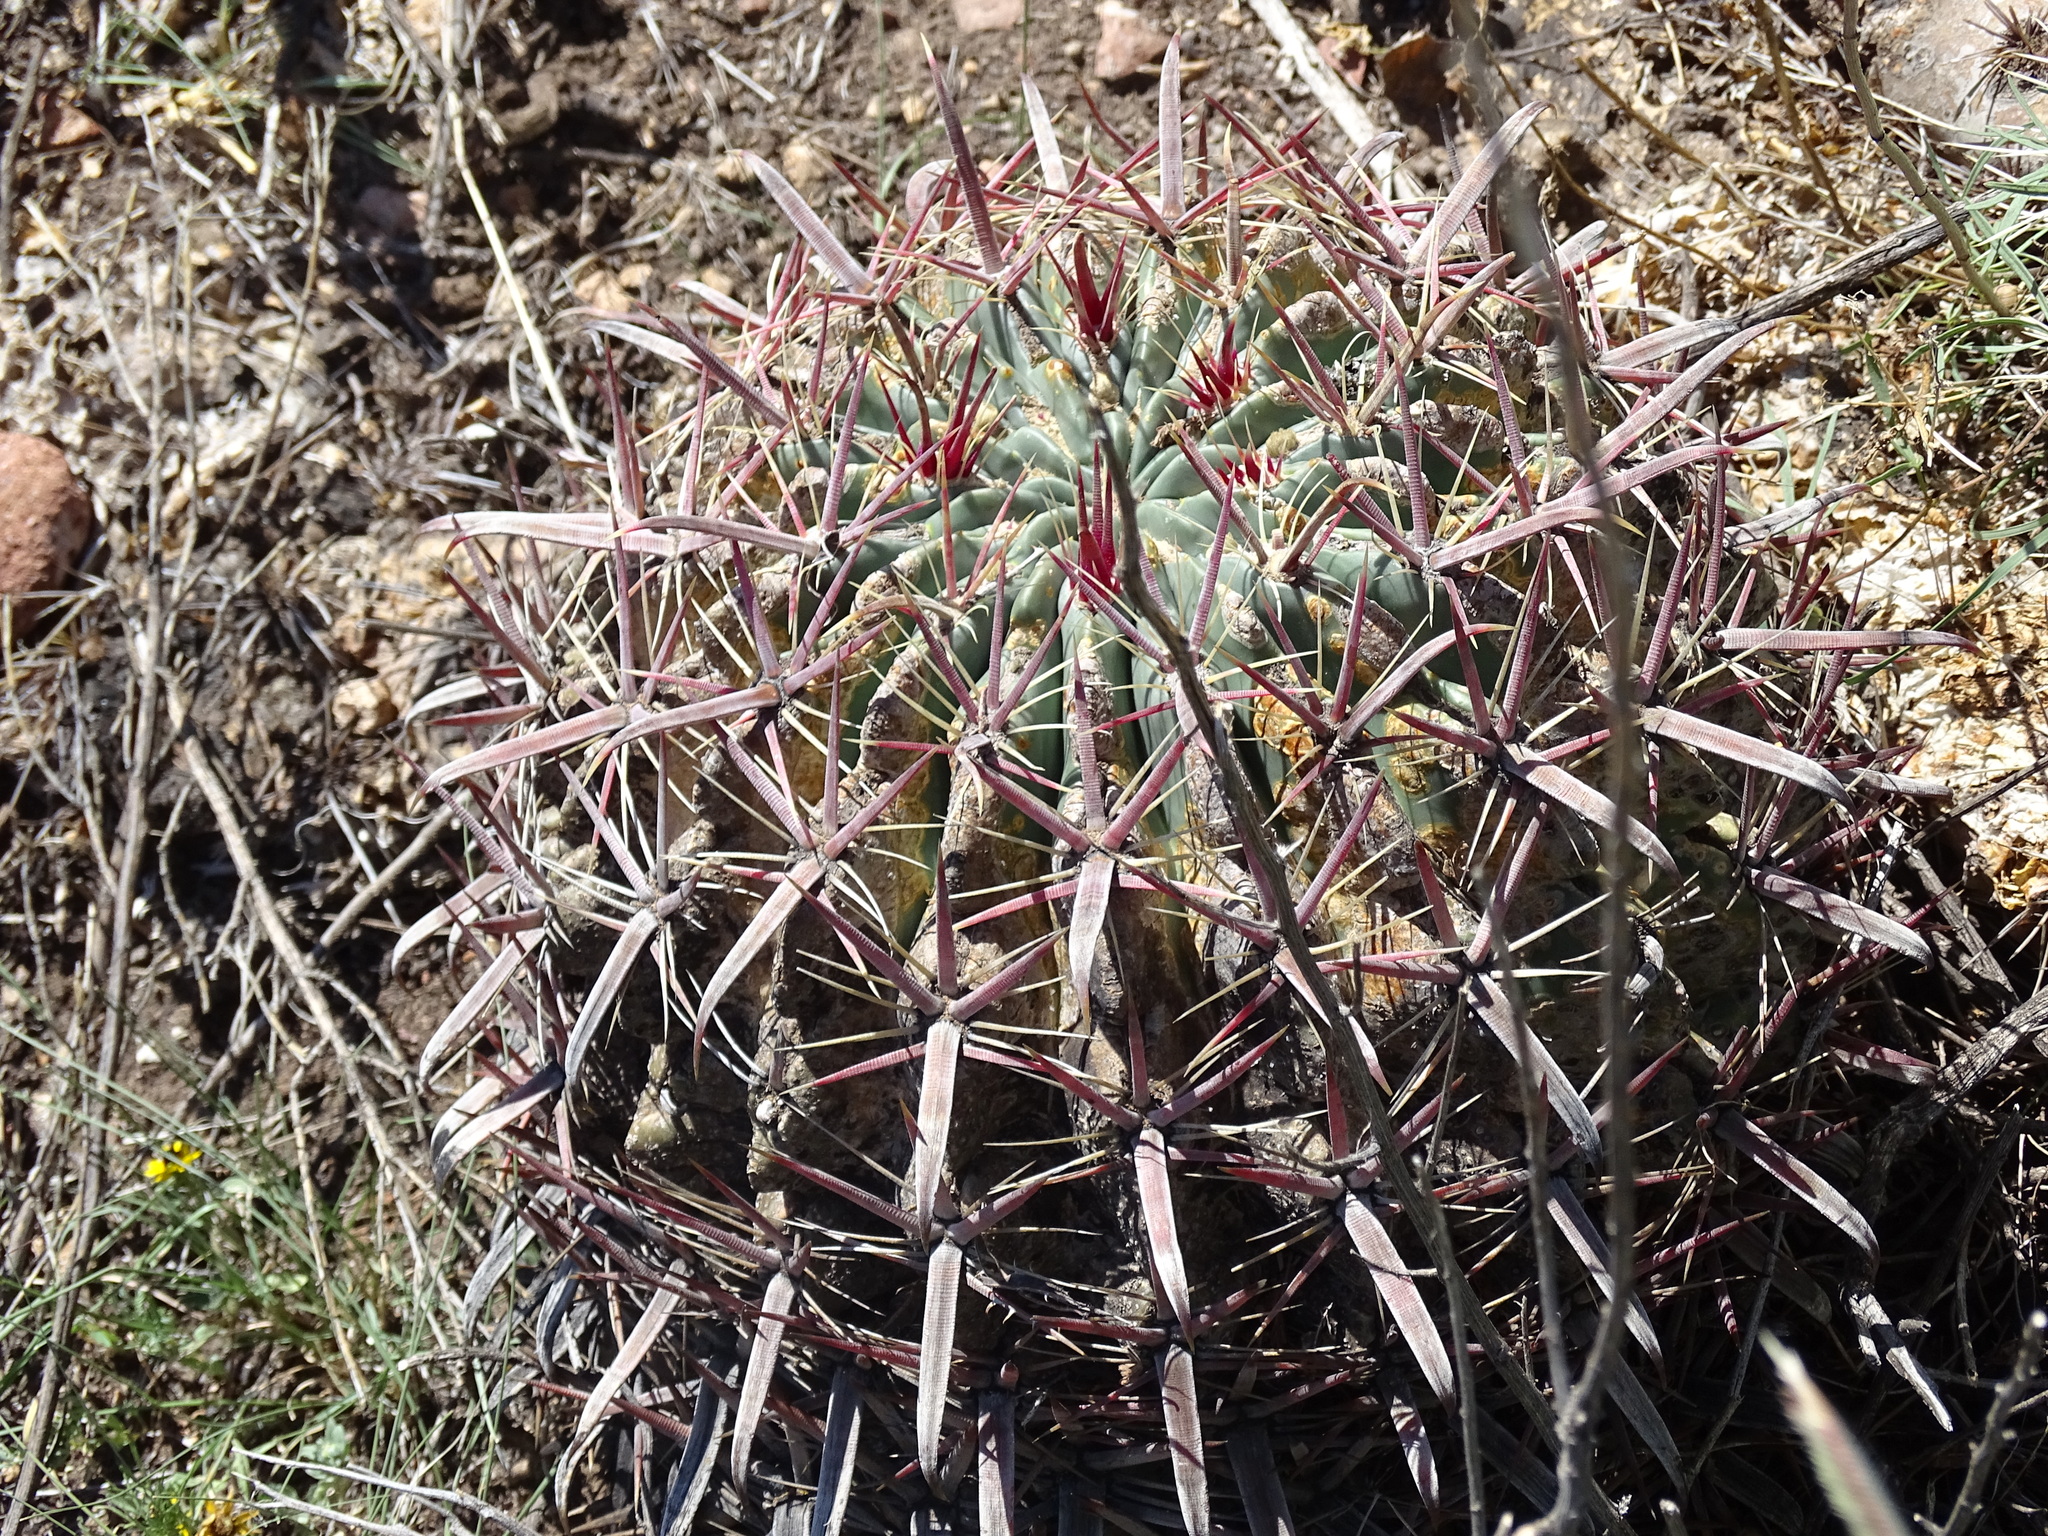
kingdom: Plantae
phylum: Tracheophyta
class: Magnoliopsida
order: Caryophyllales
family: Cactaceae
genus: Ferocactus
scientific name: Ferocactus latispinus
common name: Devil's-tongue cactus
